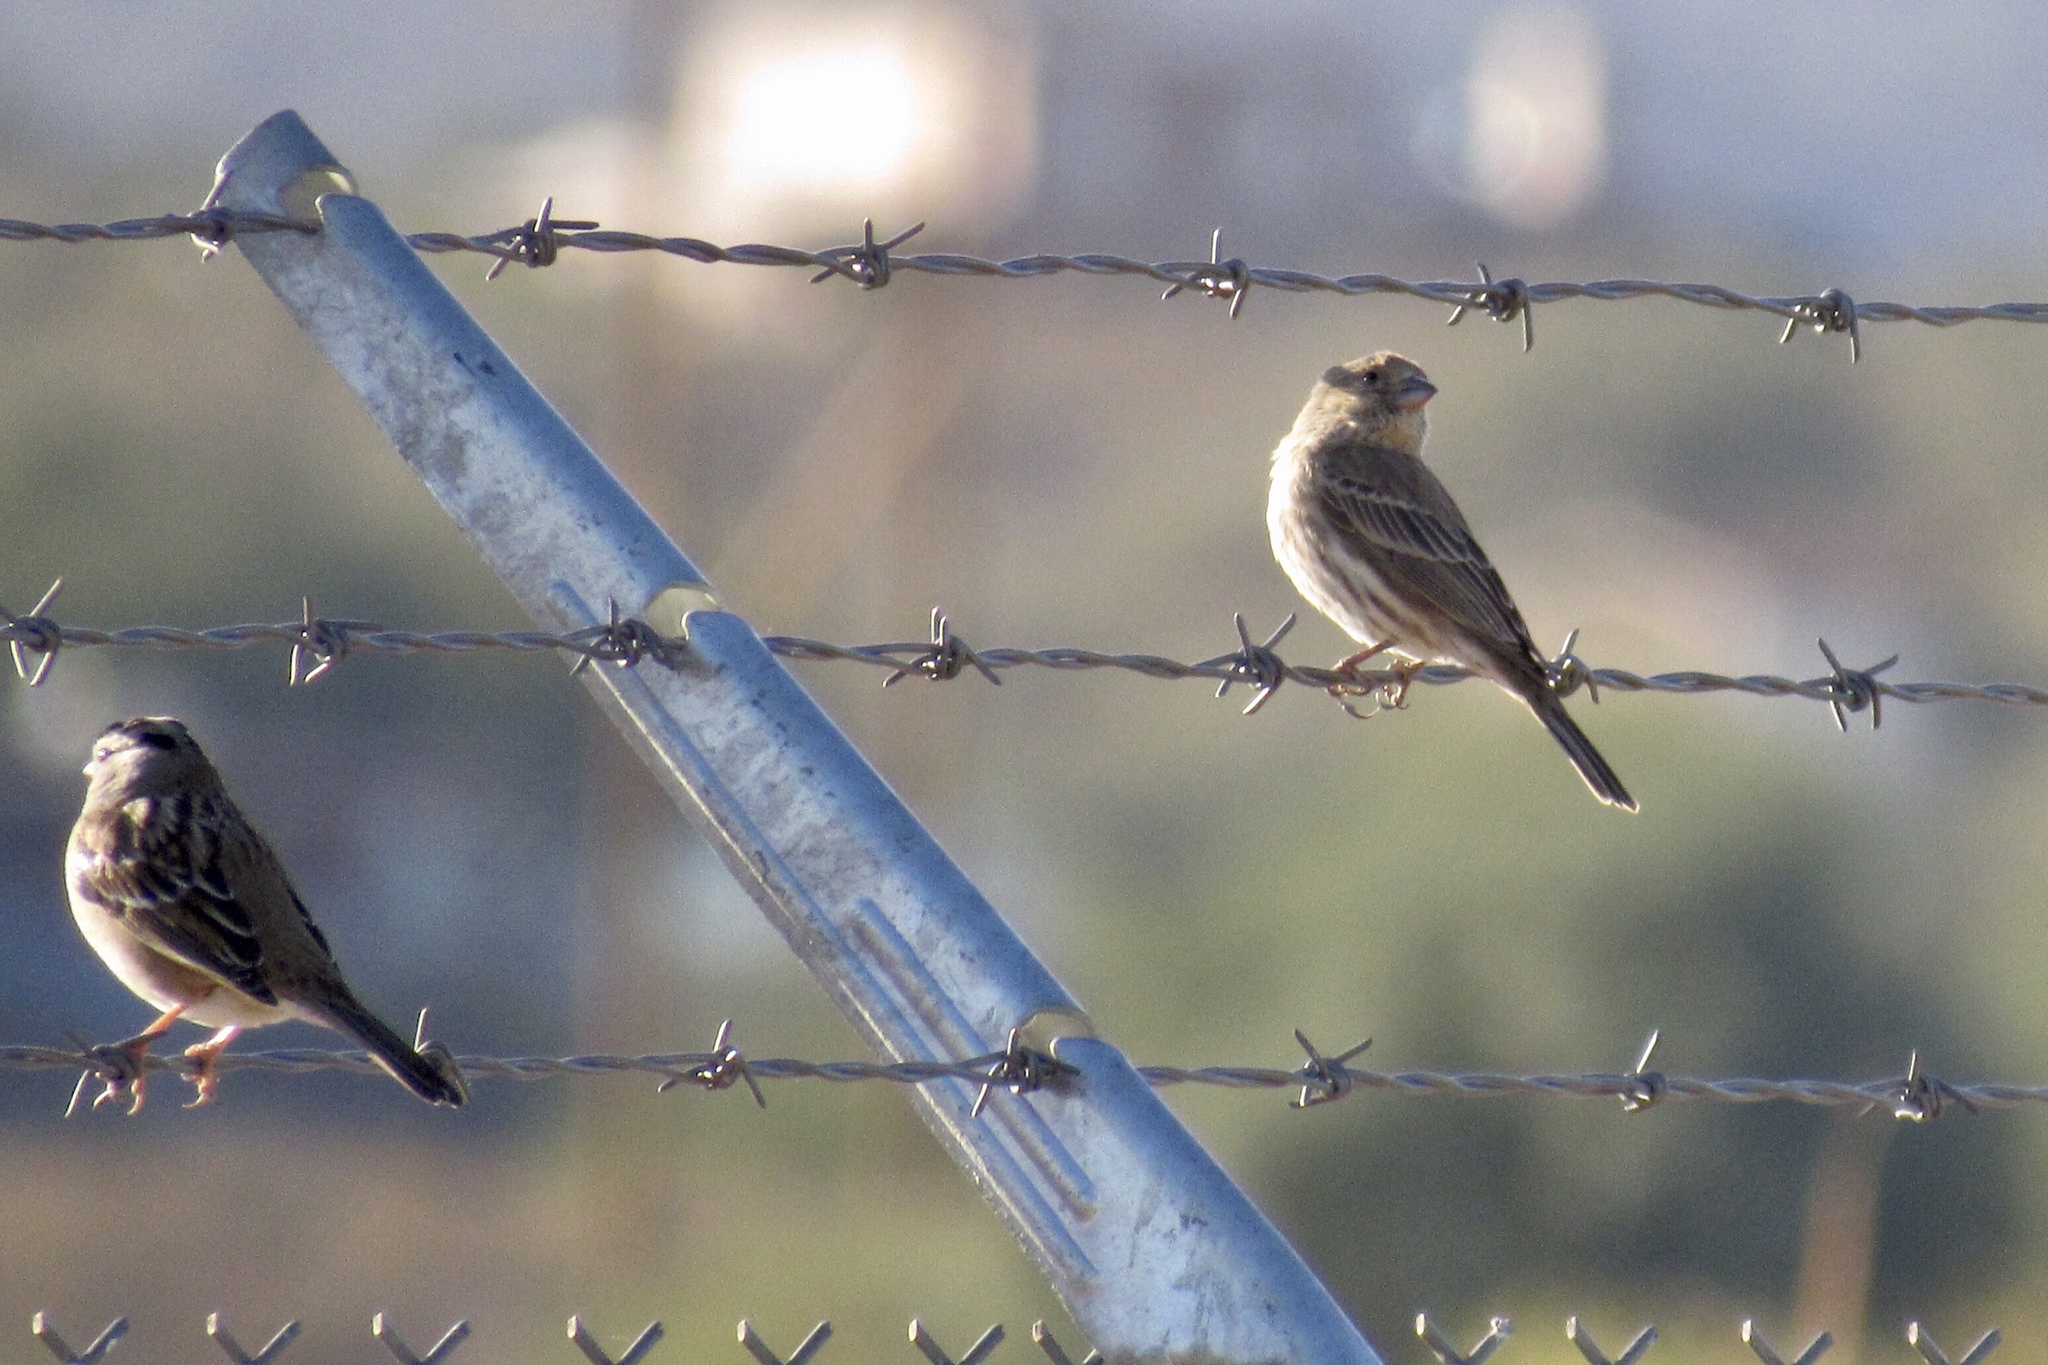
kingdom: Animalia
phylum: Chordata
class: Aves
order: Passeriformes
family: Fringillidae
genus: Haemorhous
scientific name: Haemorhous mexicanus
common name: House finch
